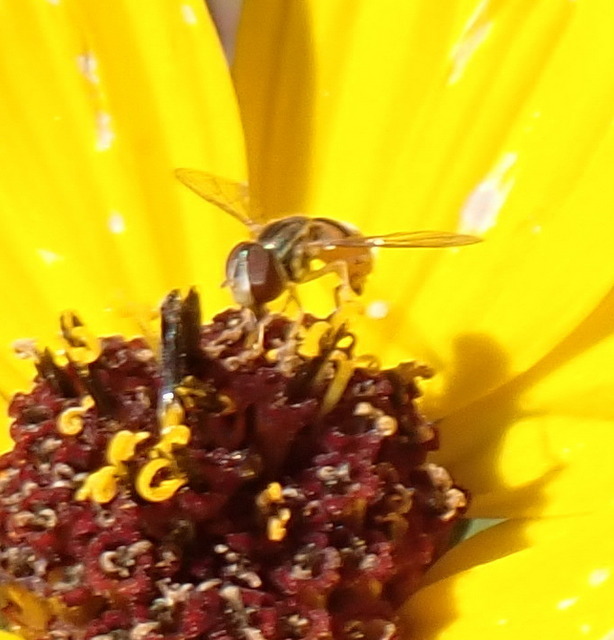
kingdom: Animalia
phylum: Arthropoda
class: Insecta
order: Diptera
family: Syrphidae
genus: Toxomerus
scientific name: Toxomerus boscii
